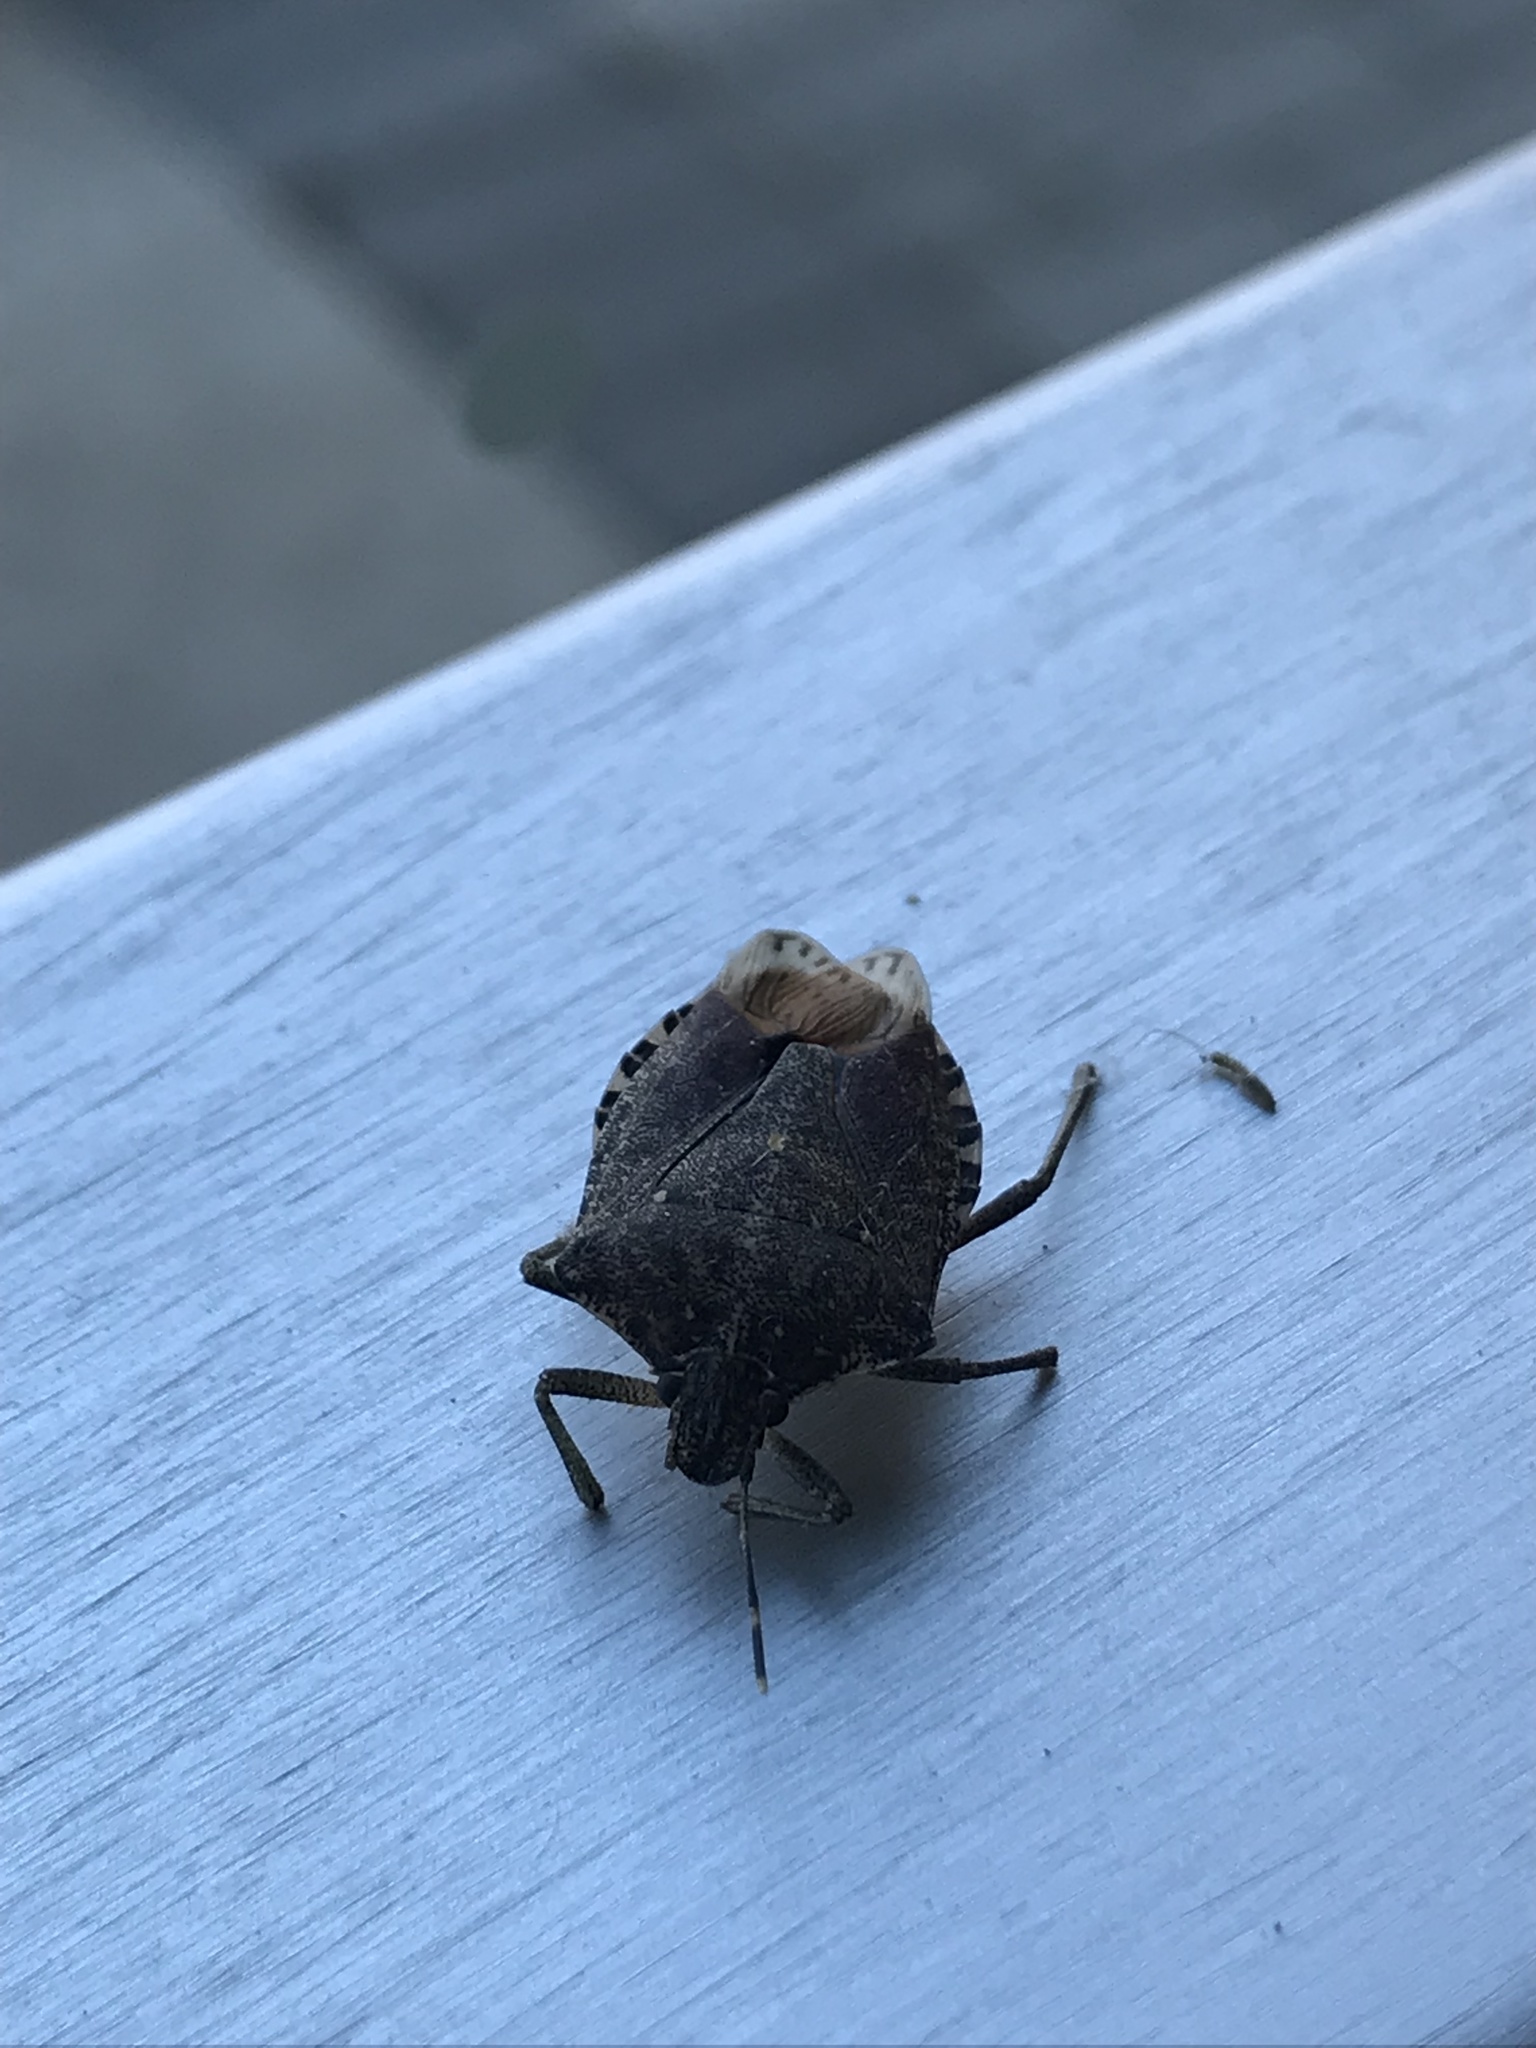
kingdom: Animalia
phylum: Arthropoda
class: Insecta
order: Hemiptera
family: Pentatomidae
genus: Halyomorpha
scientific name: Halyomorpha halys
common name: Brown marmorated stink bug
